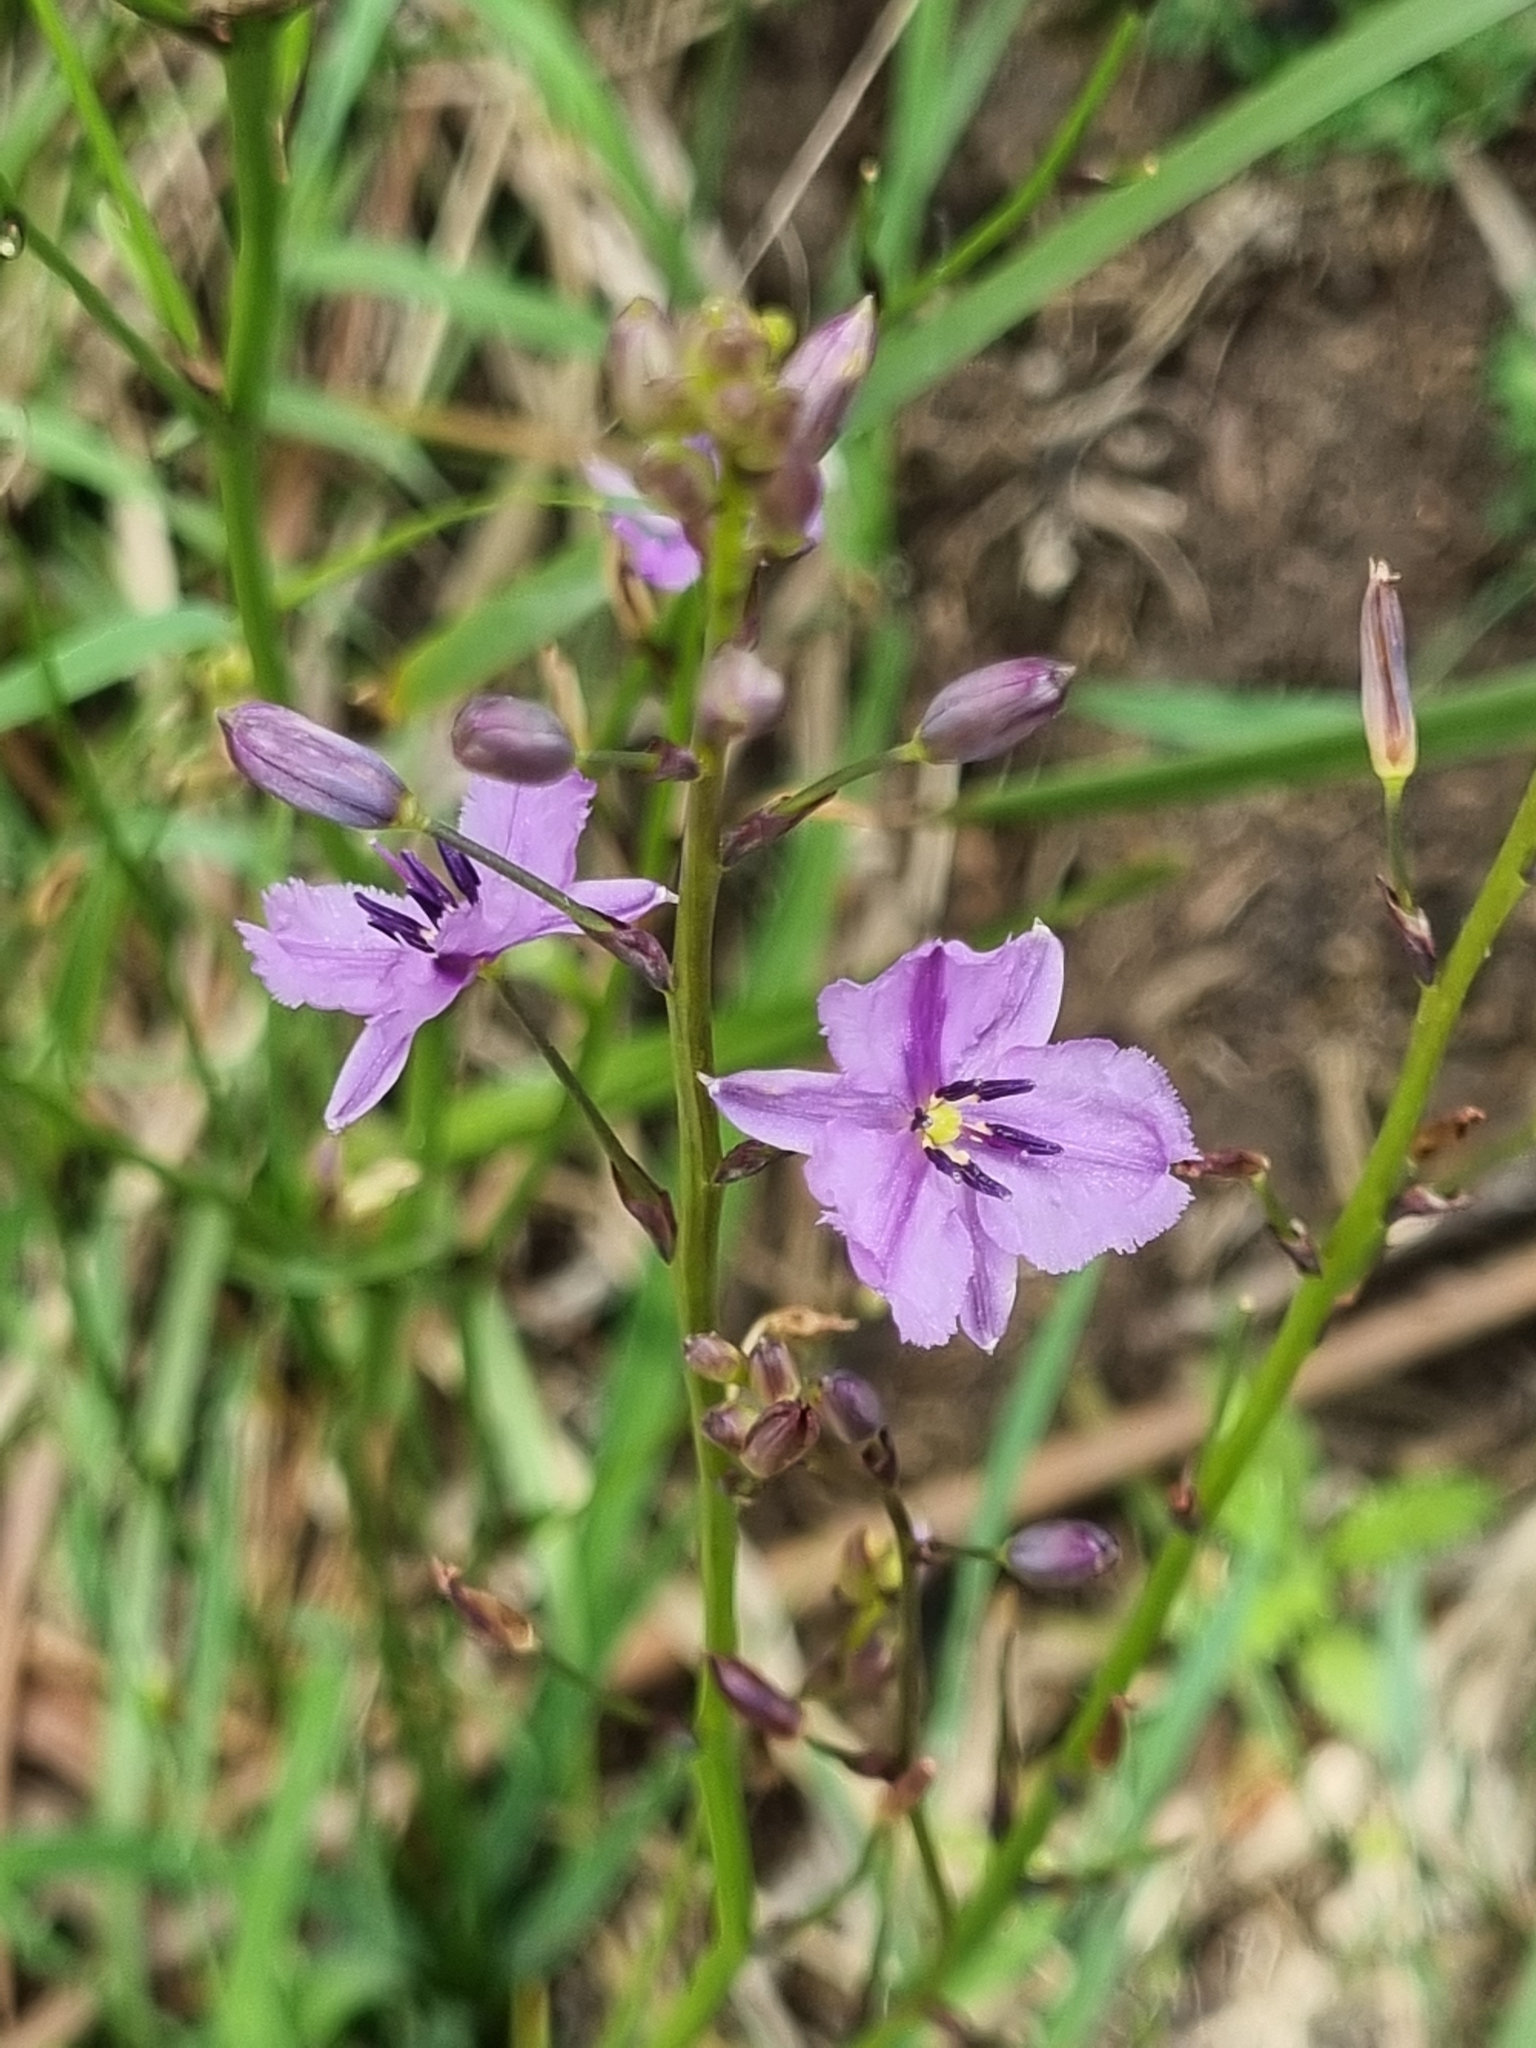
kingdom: Plantae
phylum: Tracheophyta
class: Liliopsida
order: Asparagales
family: Asparagaceae
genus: Arthropodium
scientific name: Arthropodium strictum
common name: Chocolate-lily
